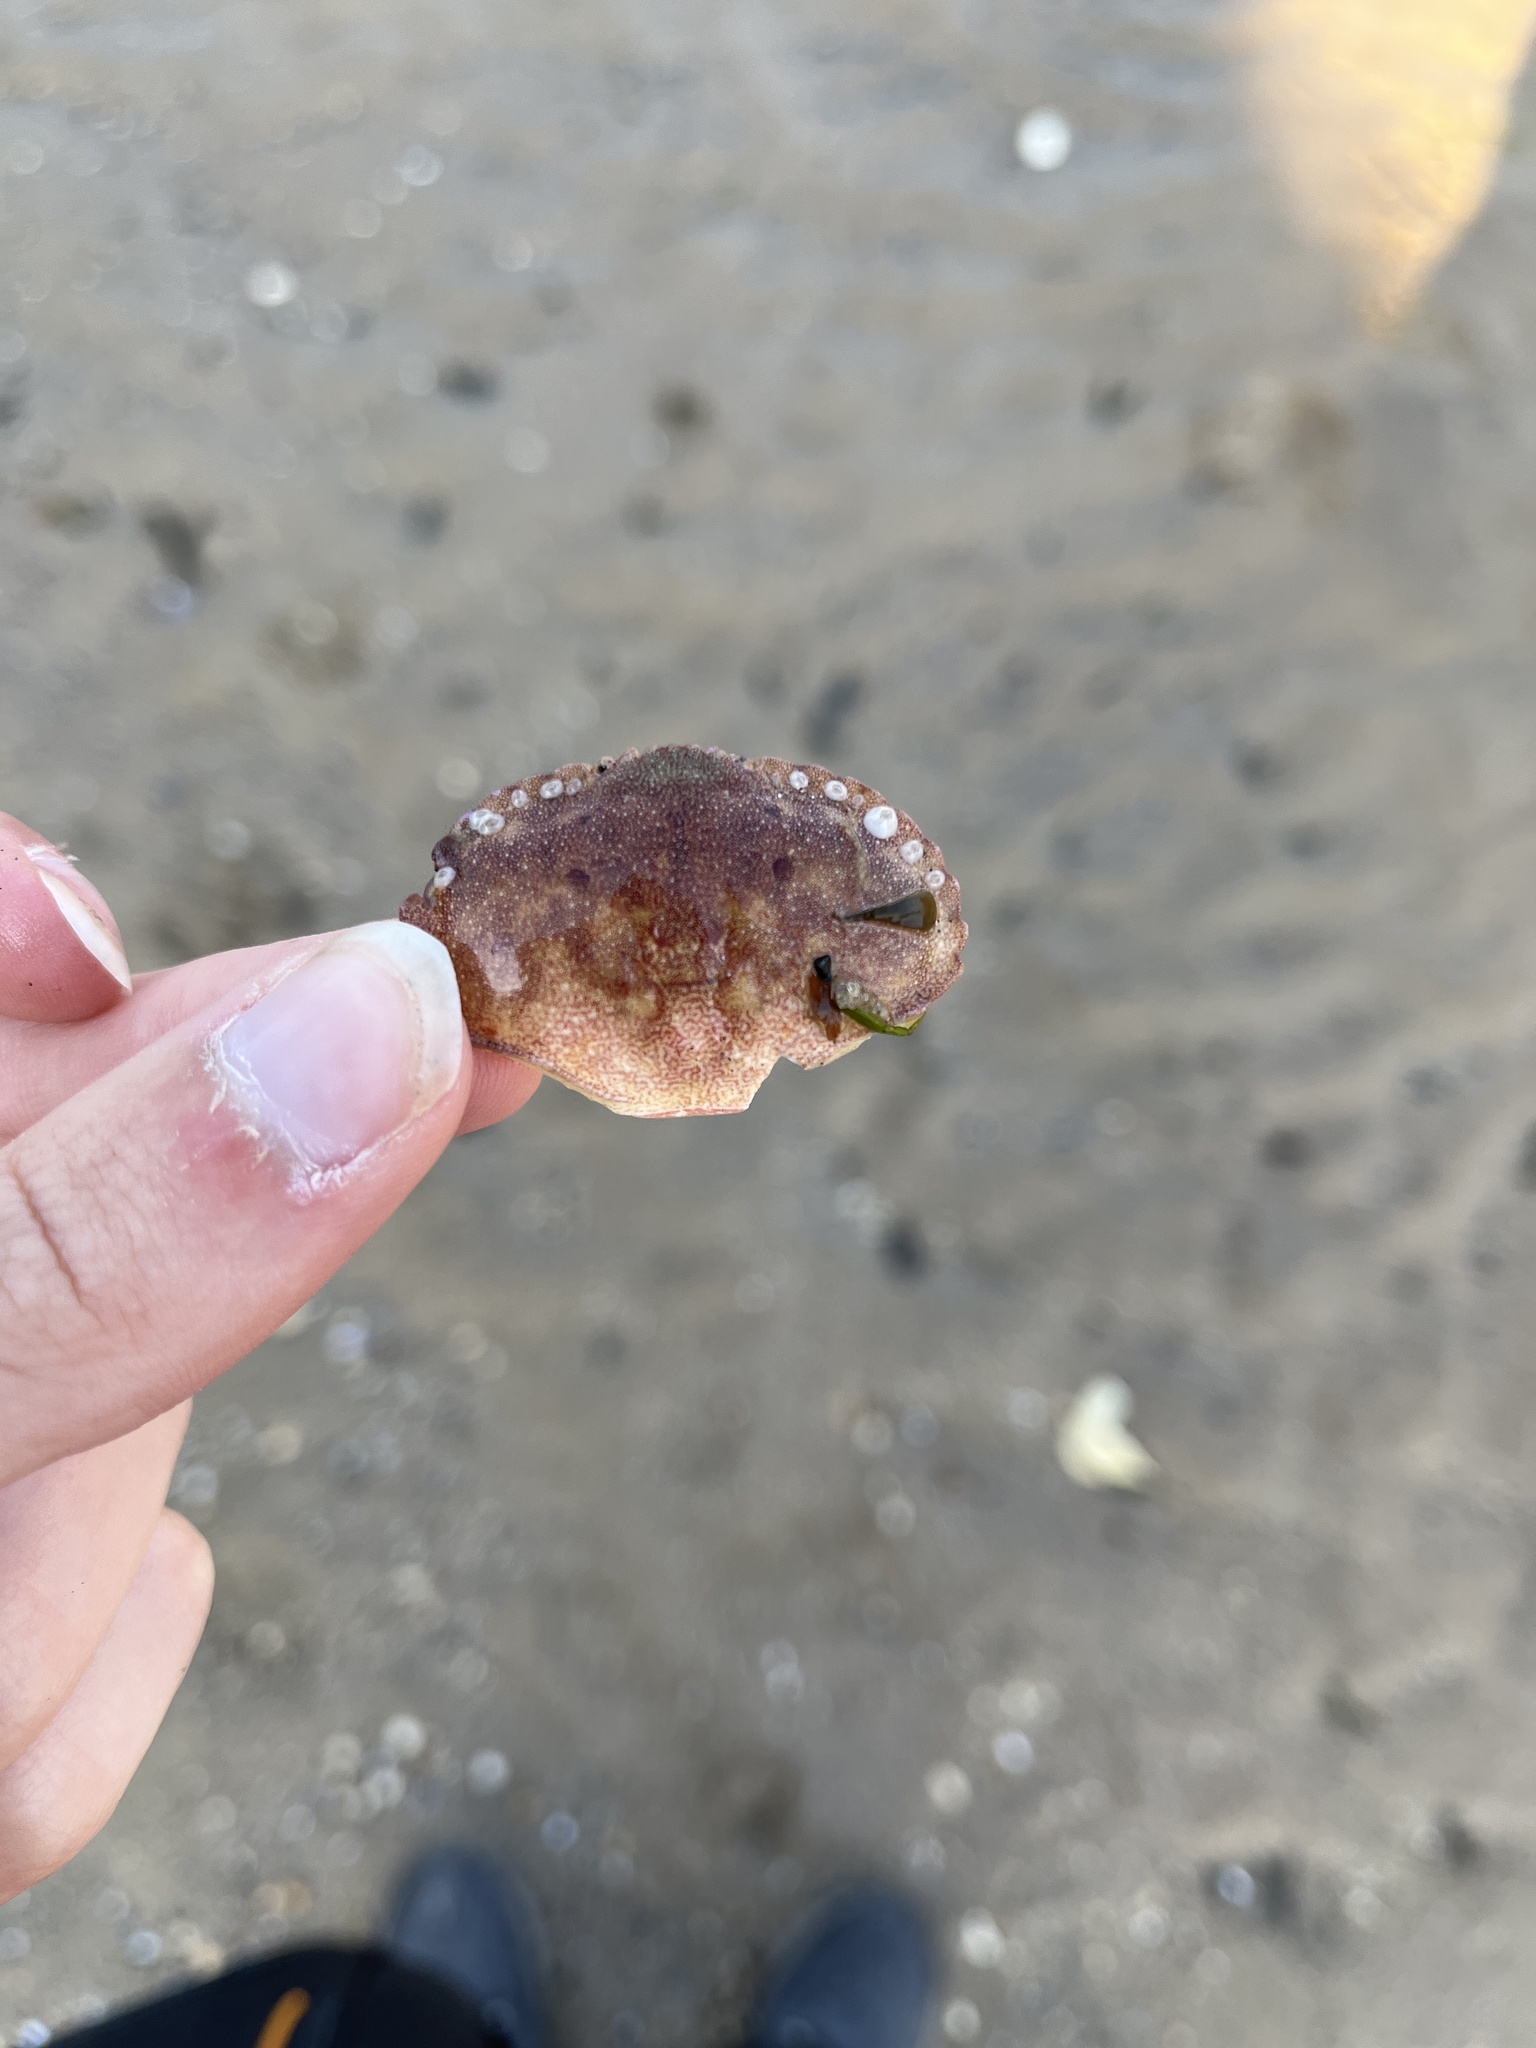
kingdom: Animalia
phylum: Arthropoda
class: Malacostraca
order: Decapoda
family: Cancridae
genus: Cancer
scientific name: Cancer pagurus
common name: Edible crab
